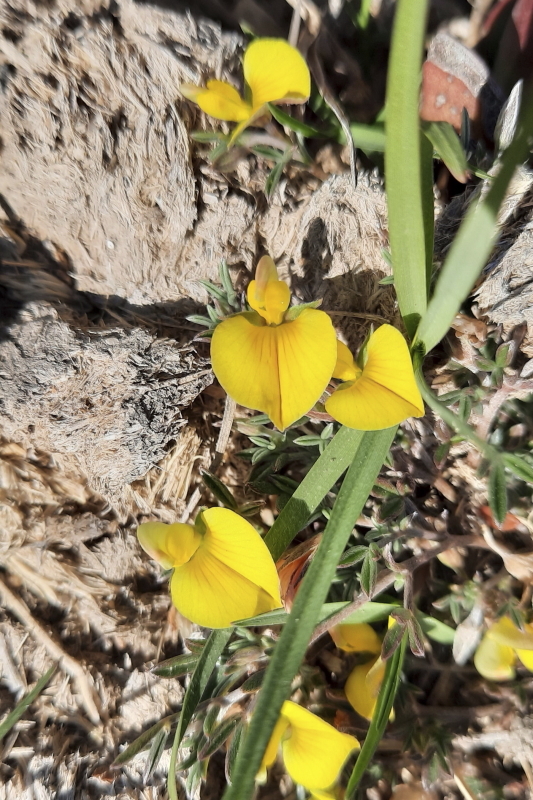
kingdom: Plantae
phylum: Tracheophyta
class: Magnoliopsida
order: Fabales
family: Fabaceae
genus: Lotononis
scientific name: Lotononis pungens
